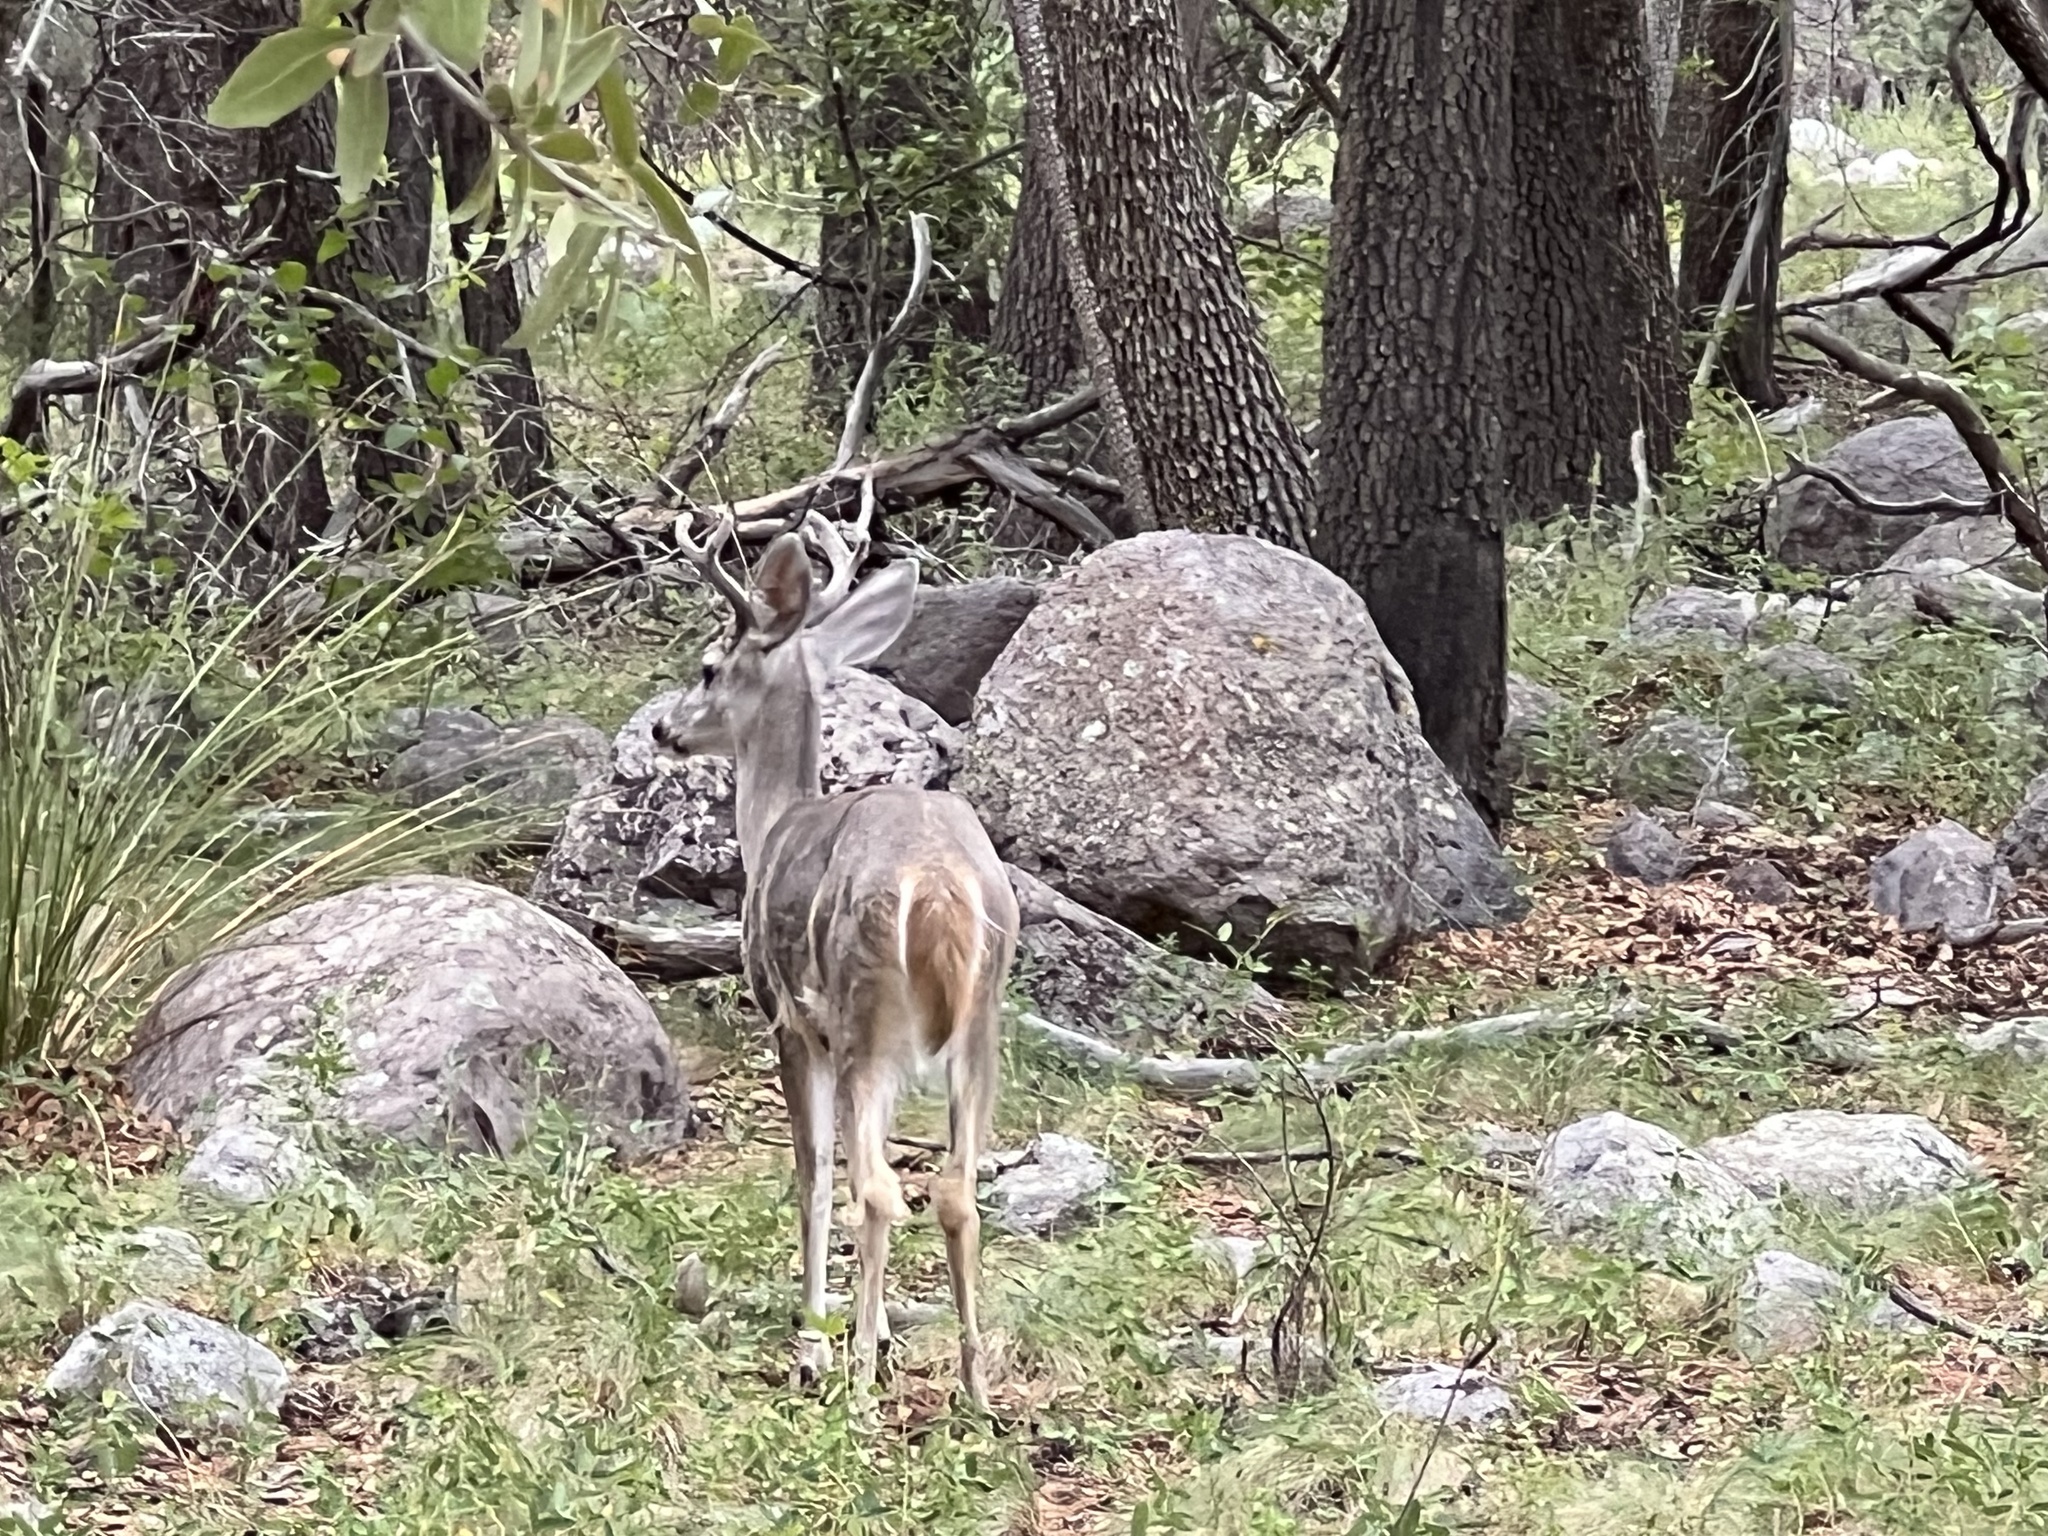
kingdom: Animalia
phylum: Chordata
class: Mammalia
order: Artiodactyla
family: Cervidae
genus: Odocoileus
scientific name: Odocoileus virginianus
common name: White-tailed deer
